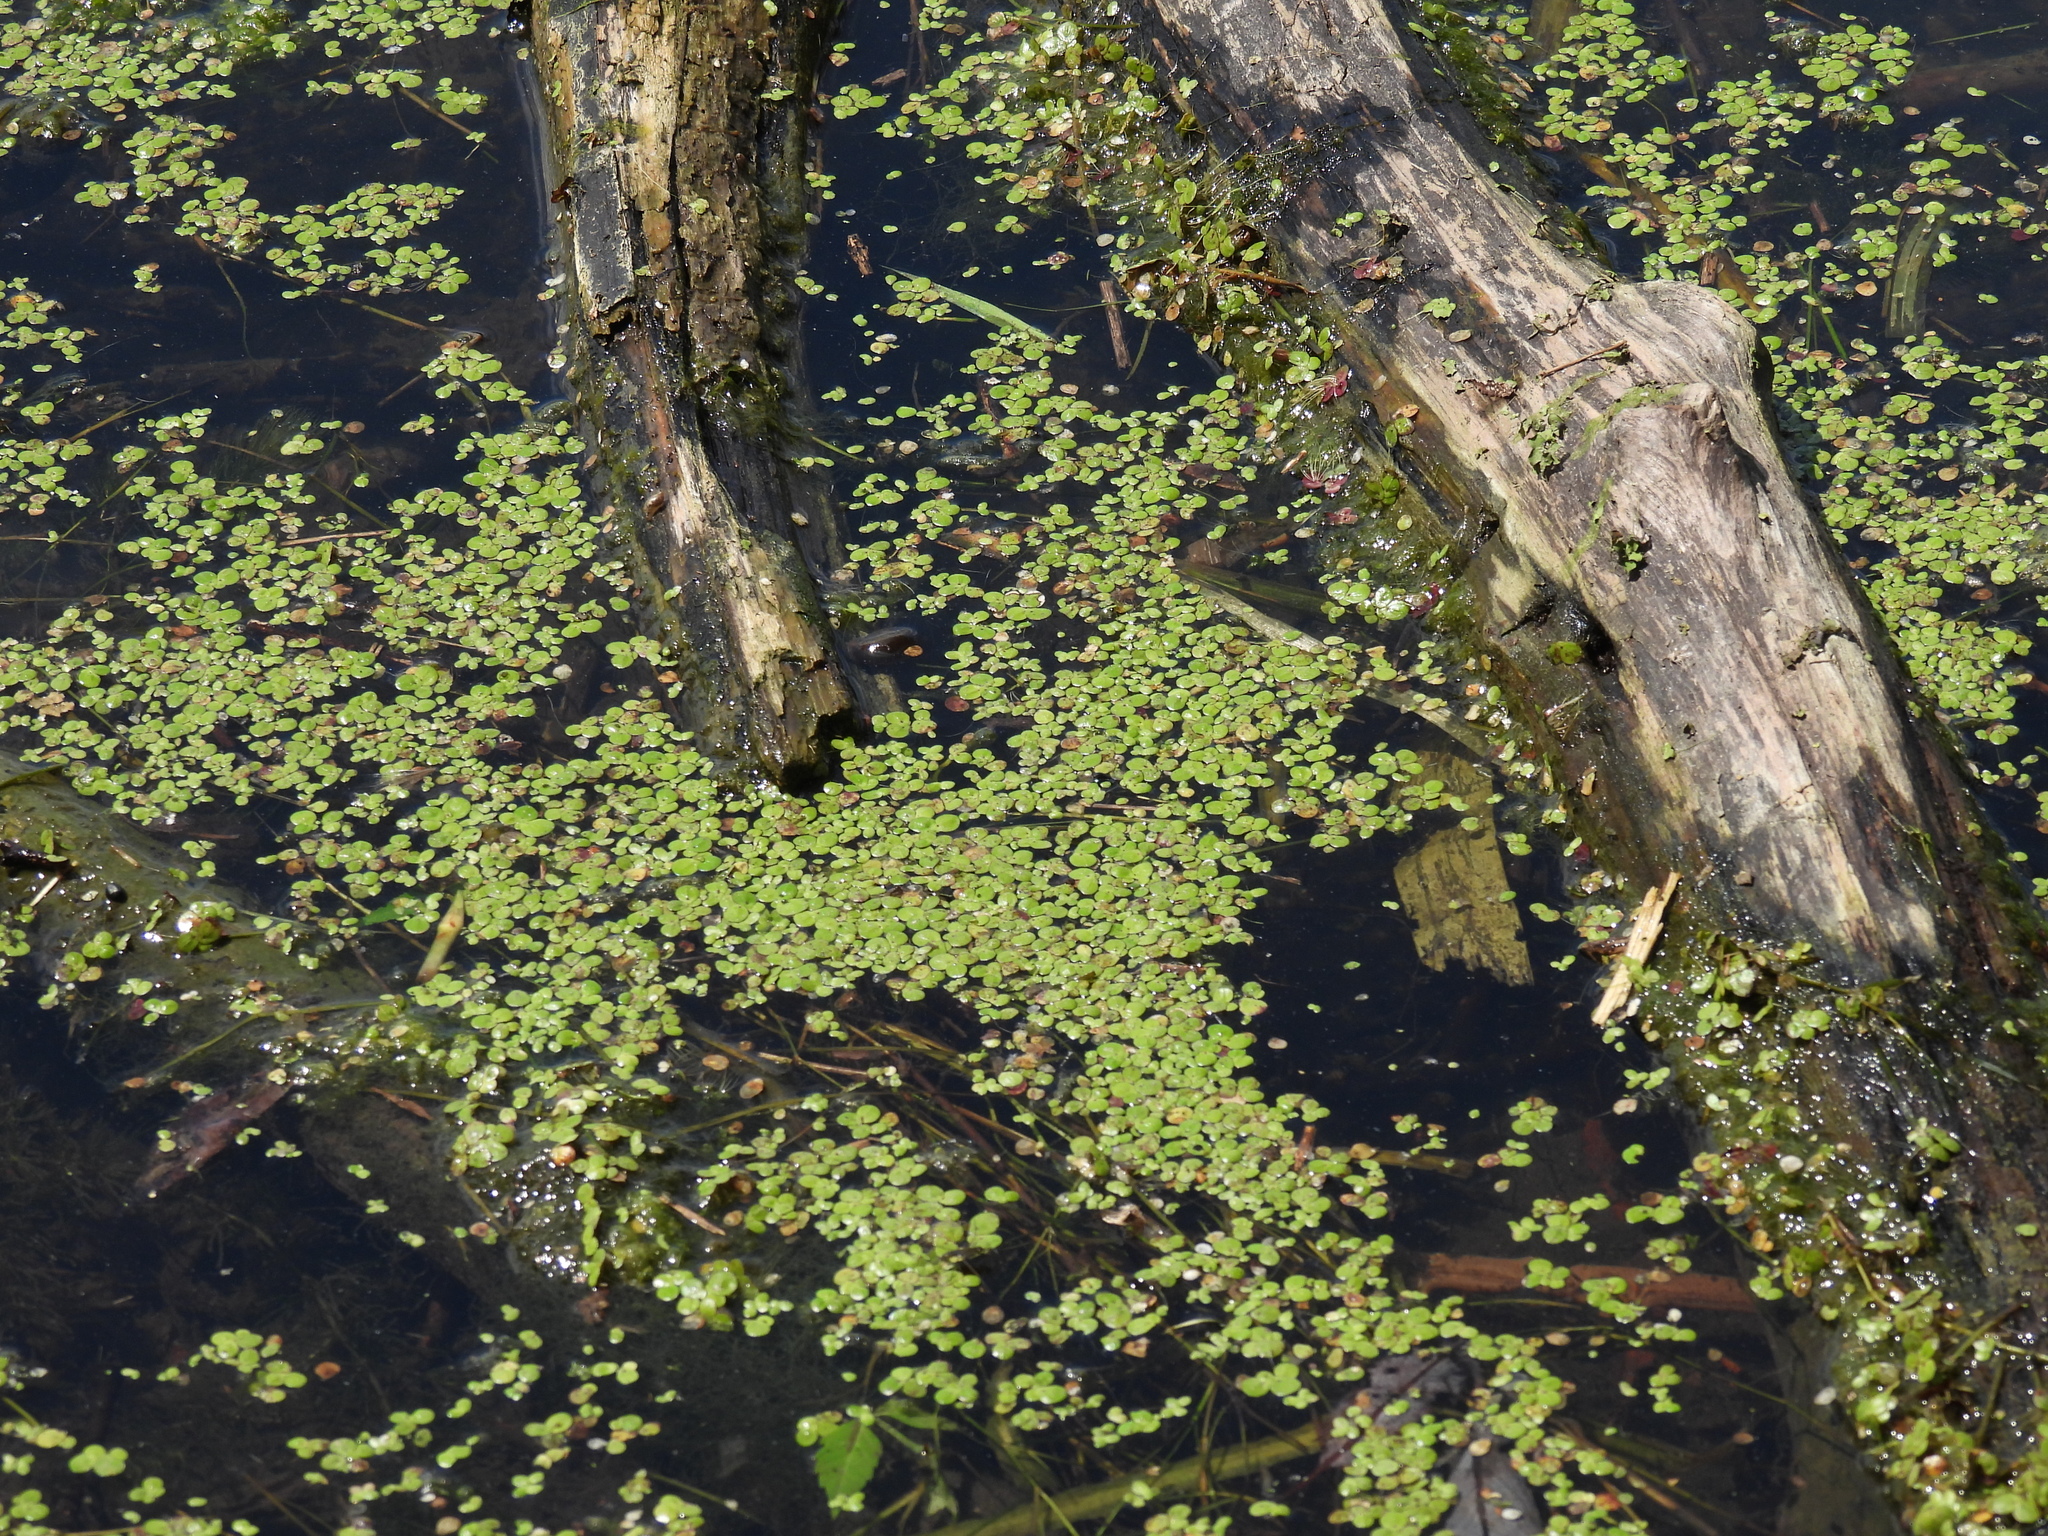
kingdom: Plantae
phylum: Tracheophyta
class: Liliopsida
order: Alismatales
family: Araceae
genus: Lemna
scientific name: Lemna minor
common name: Common duckweed
